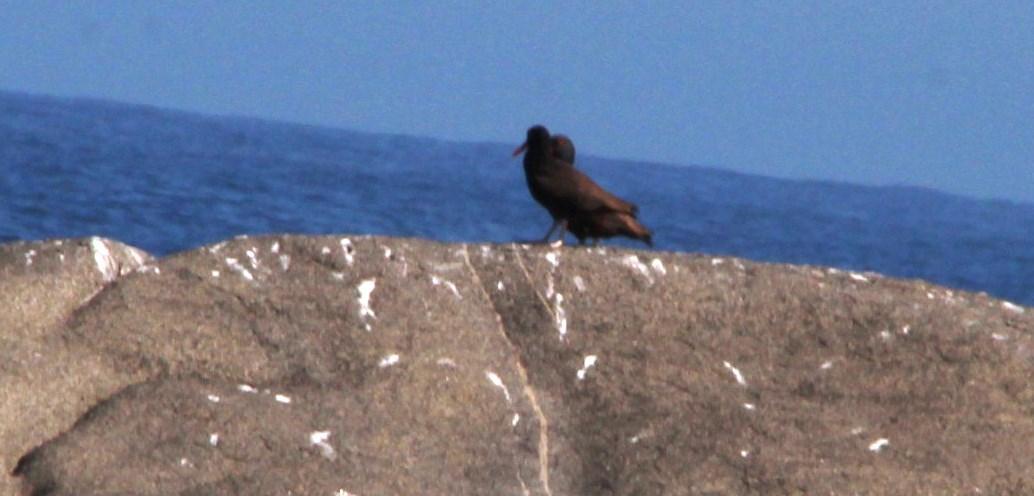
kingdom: Animalia
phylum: Chordata
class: Aves
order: Charadriiformes
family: Haematopodidae
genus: Haematopus
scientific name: Haematopus ater
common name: Blackish oystercatcher
